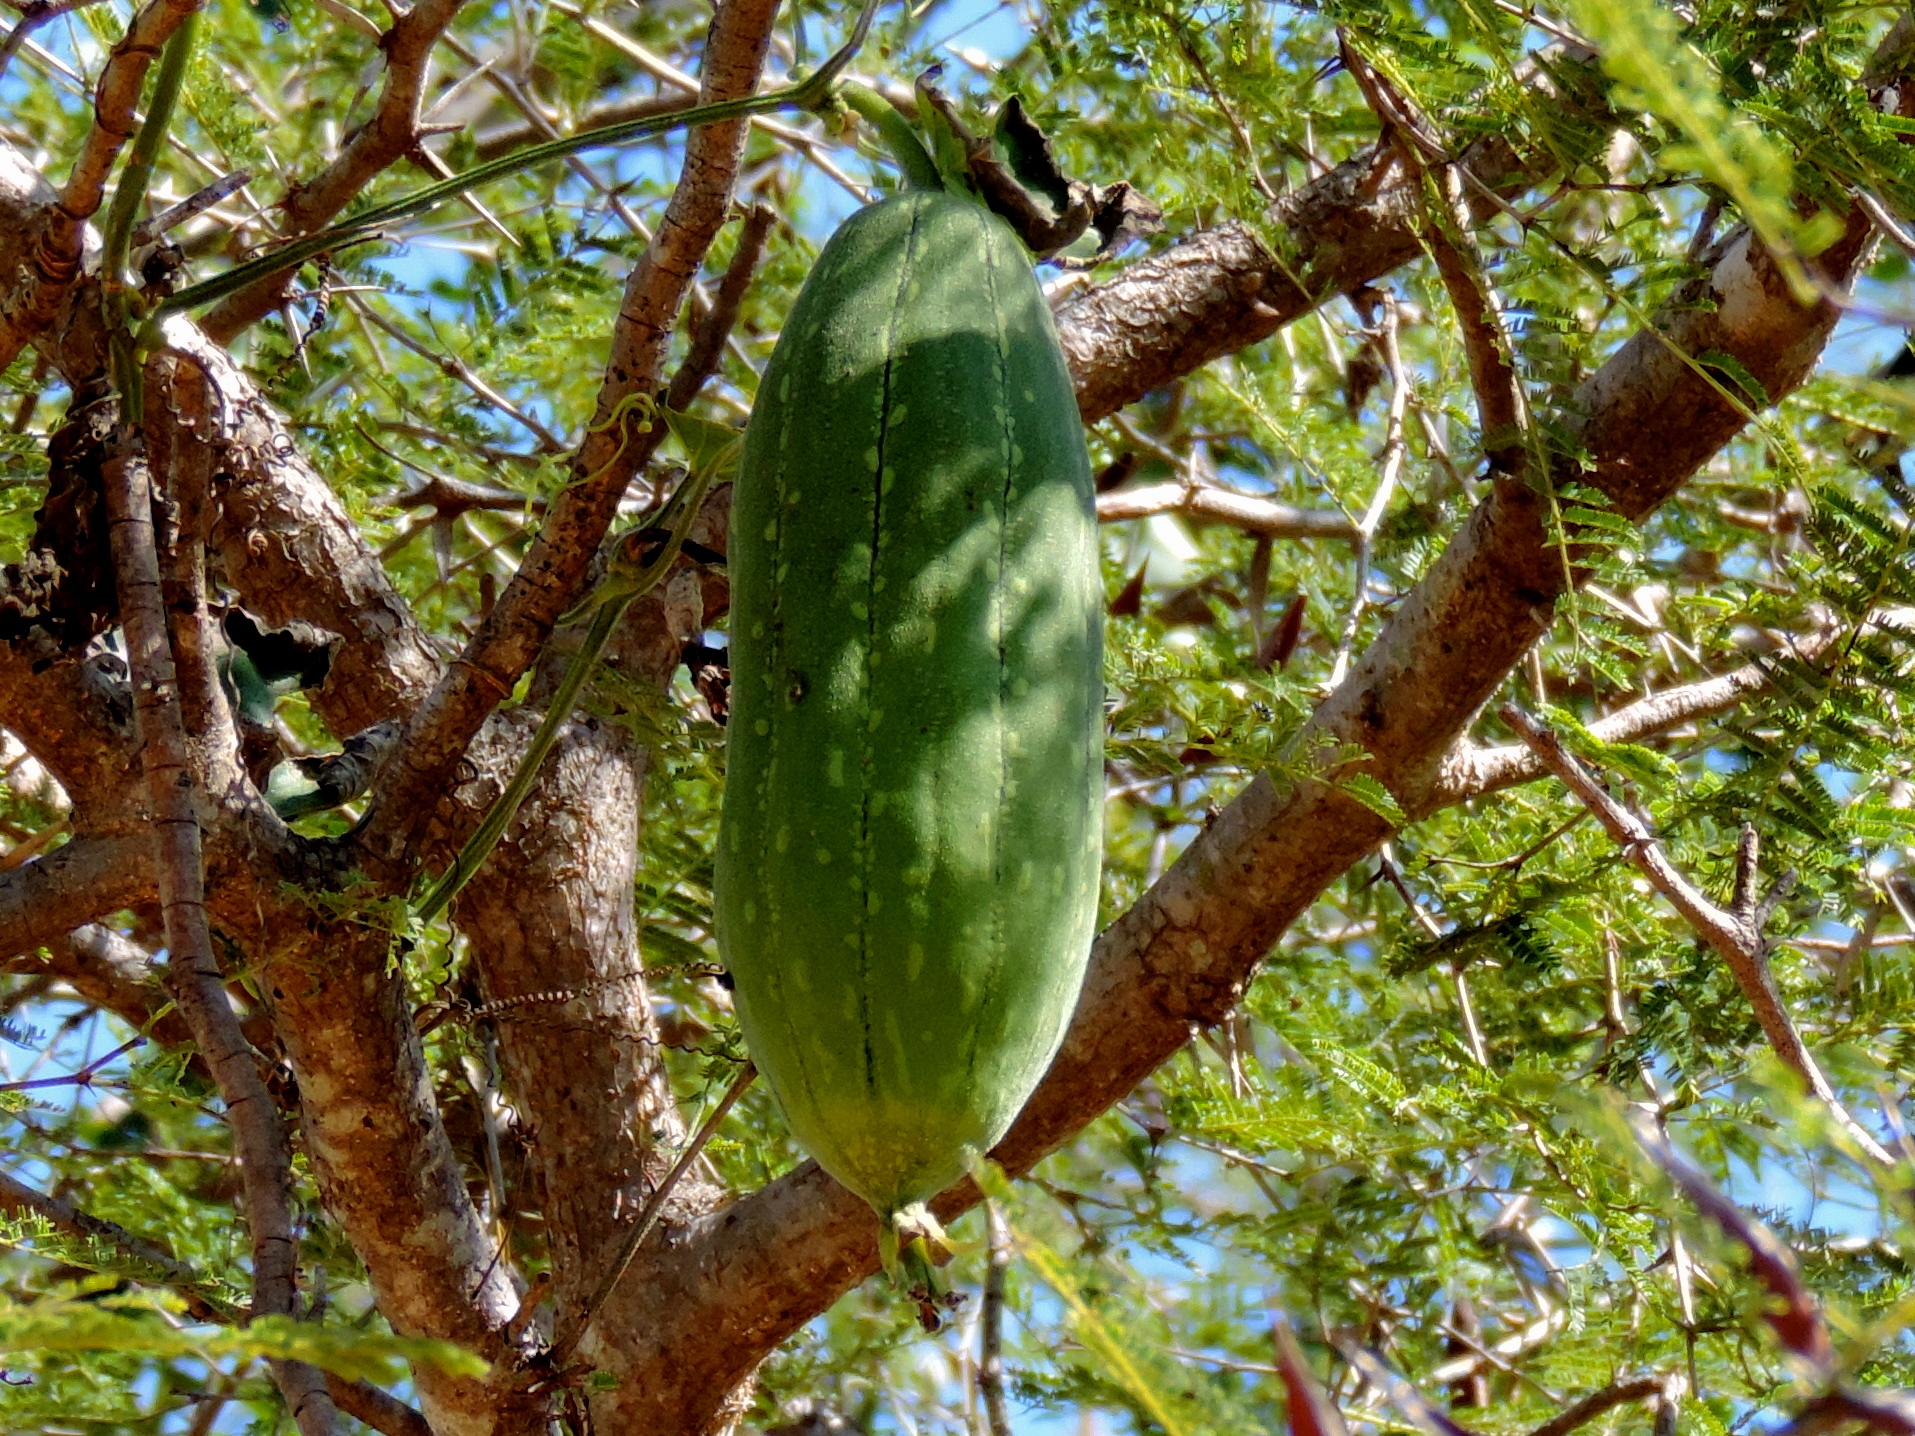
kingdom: Plantae
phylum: Tracheophyta
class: Magnoliopsida
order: Cucurbitales
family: Cucurbitaceae
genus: Luffa
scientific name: Luffa aegyptiaca
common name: Sponge gourd
